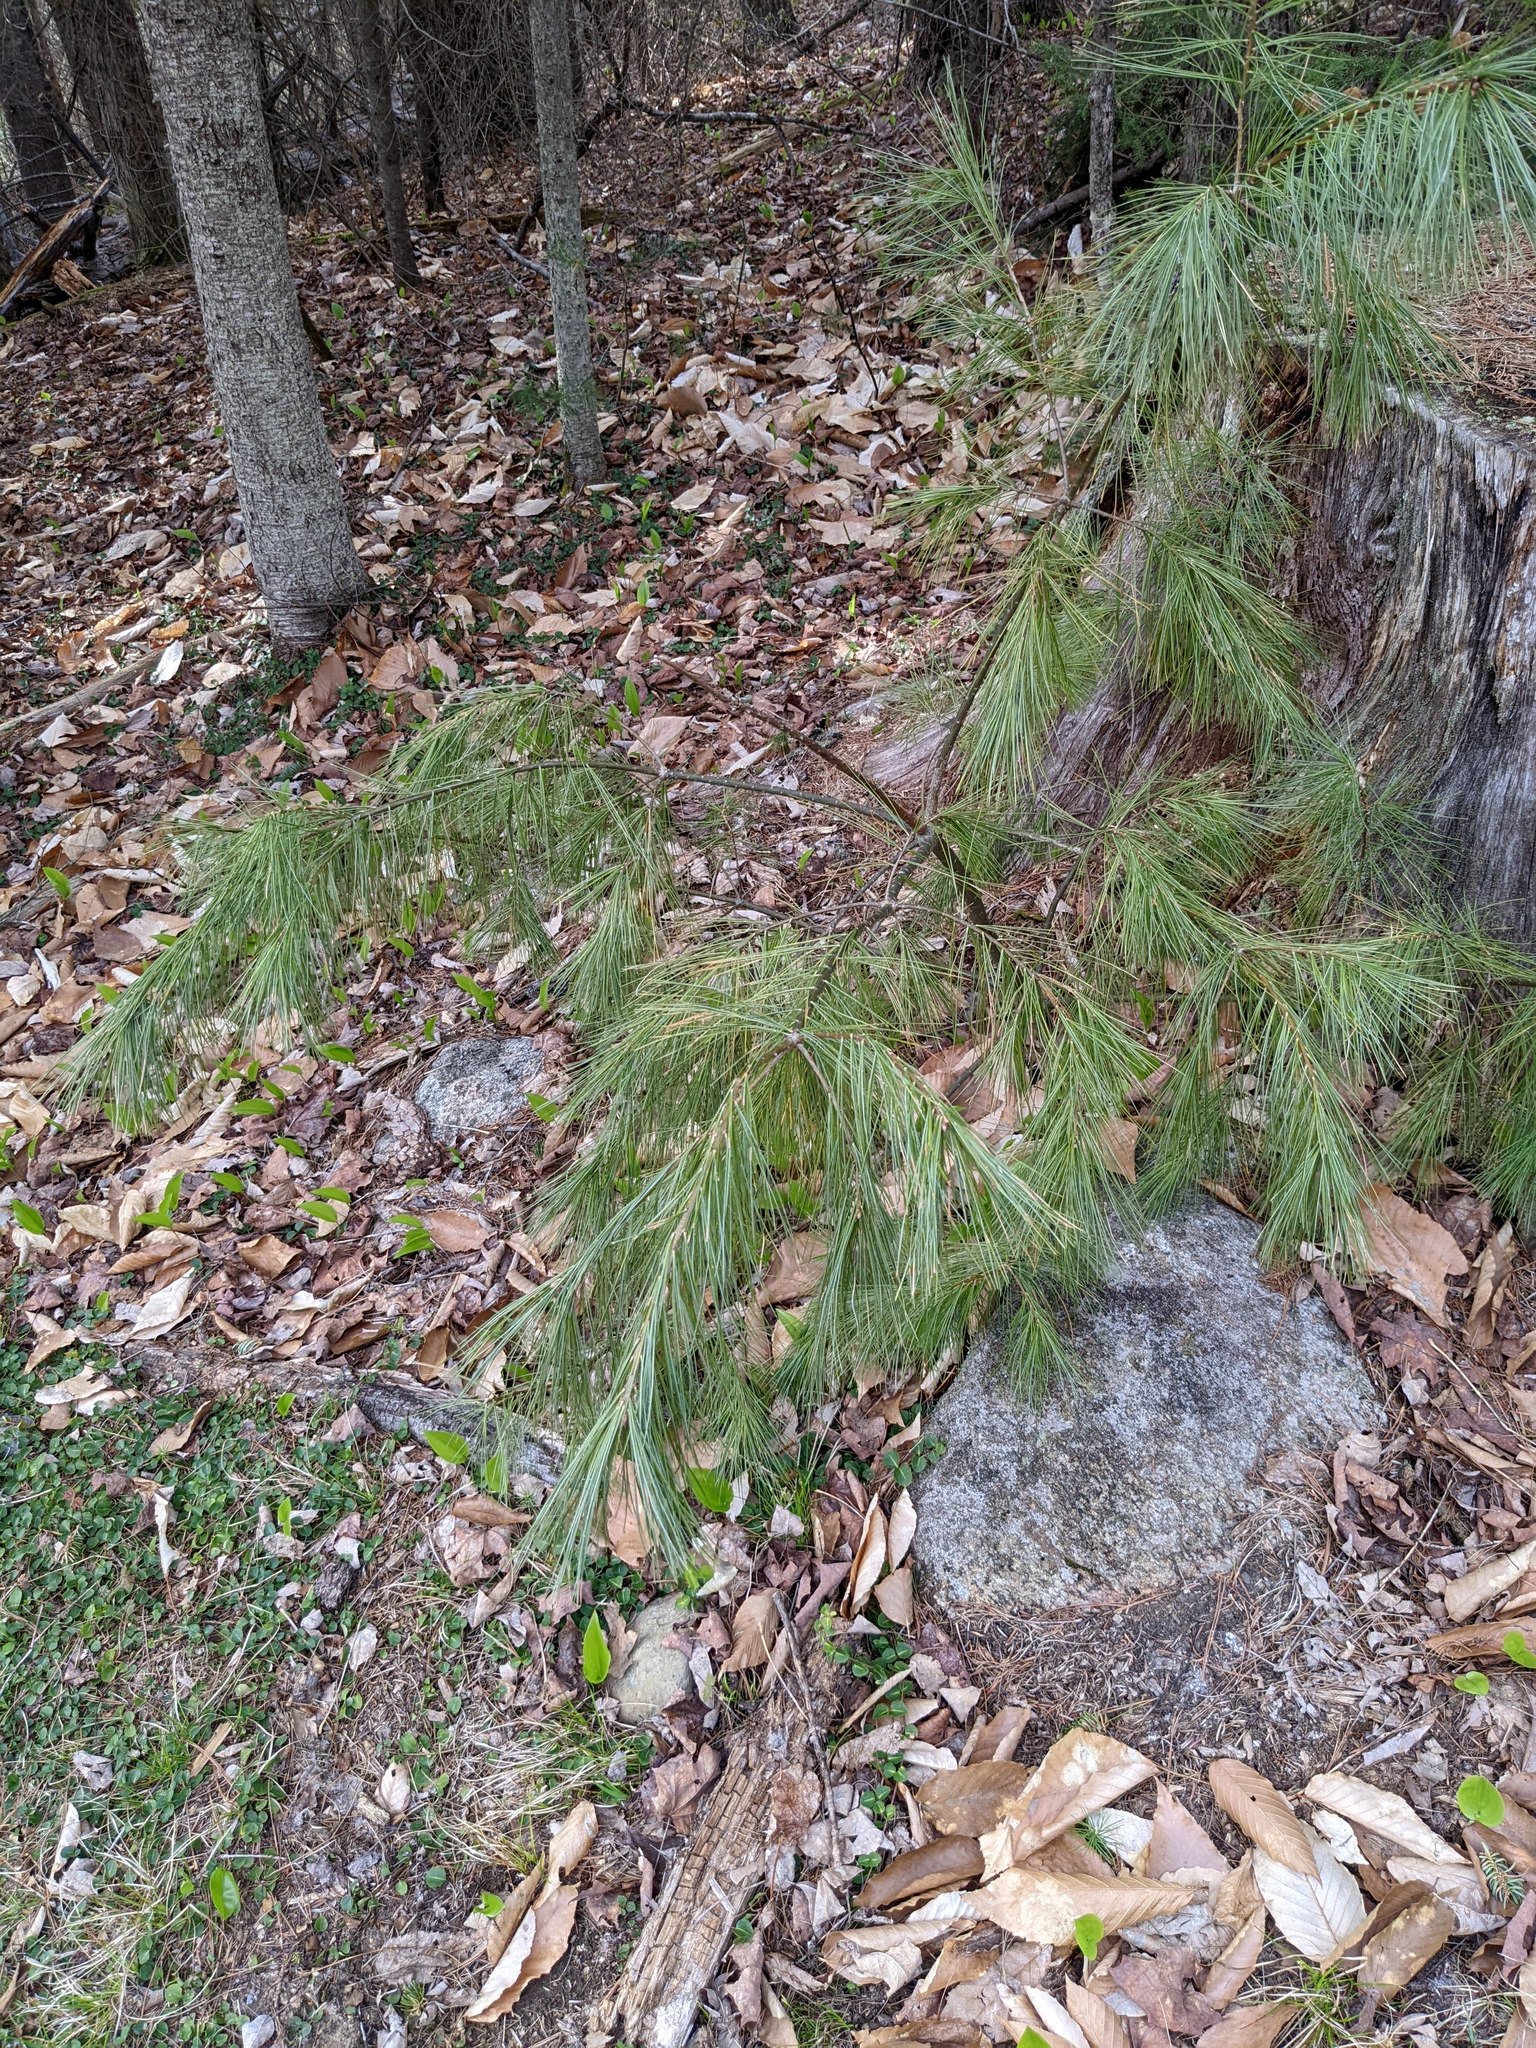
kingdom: Plantae
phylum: Tracheophyta
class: Pinopsida
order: Pinales
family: Pinaceae
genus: Pinus
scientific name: Pinus strobus
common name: Weymouth pine
